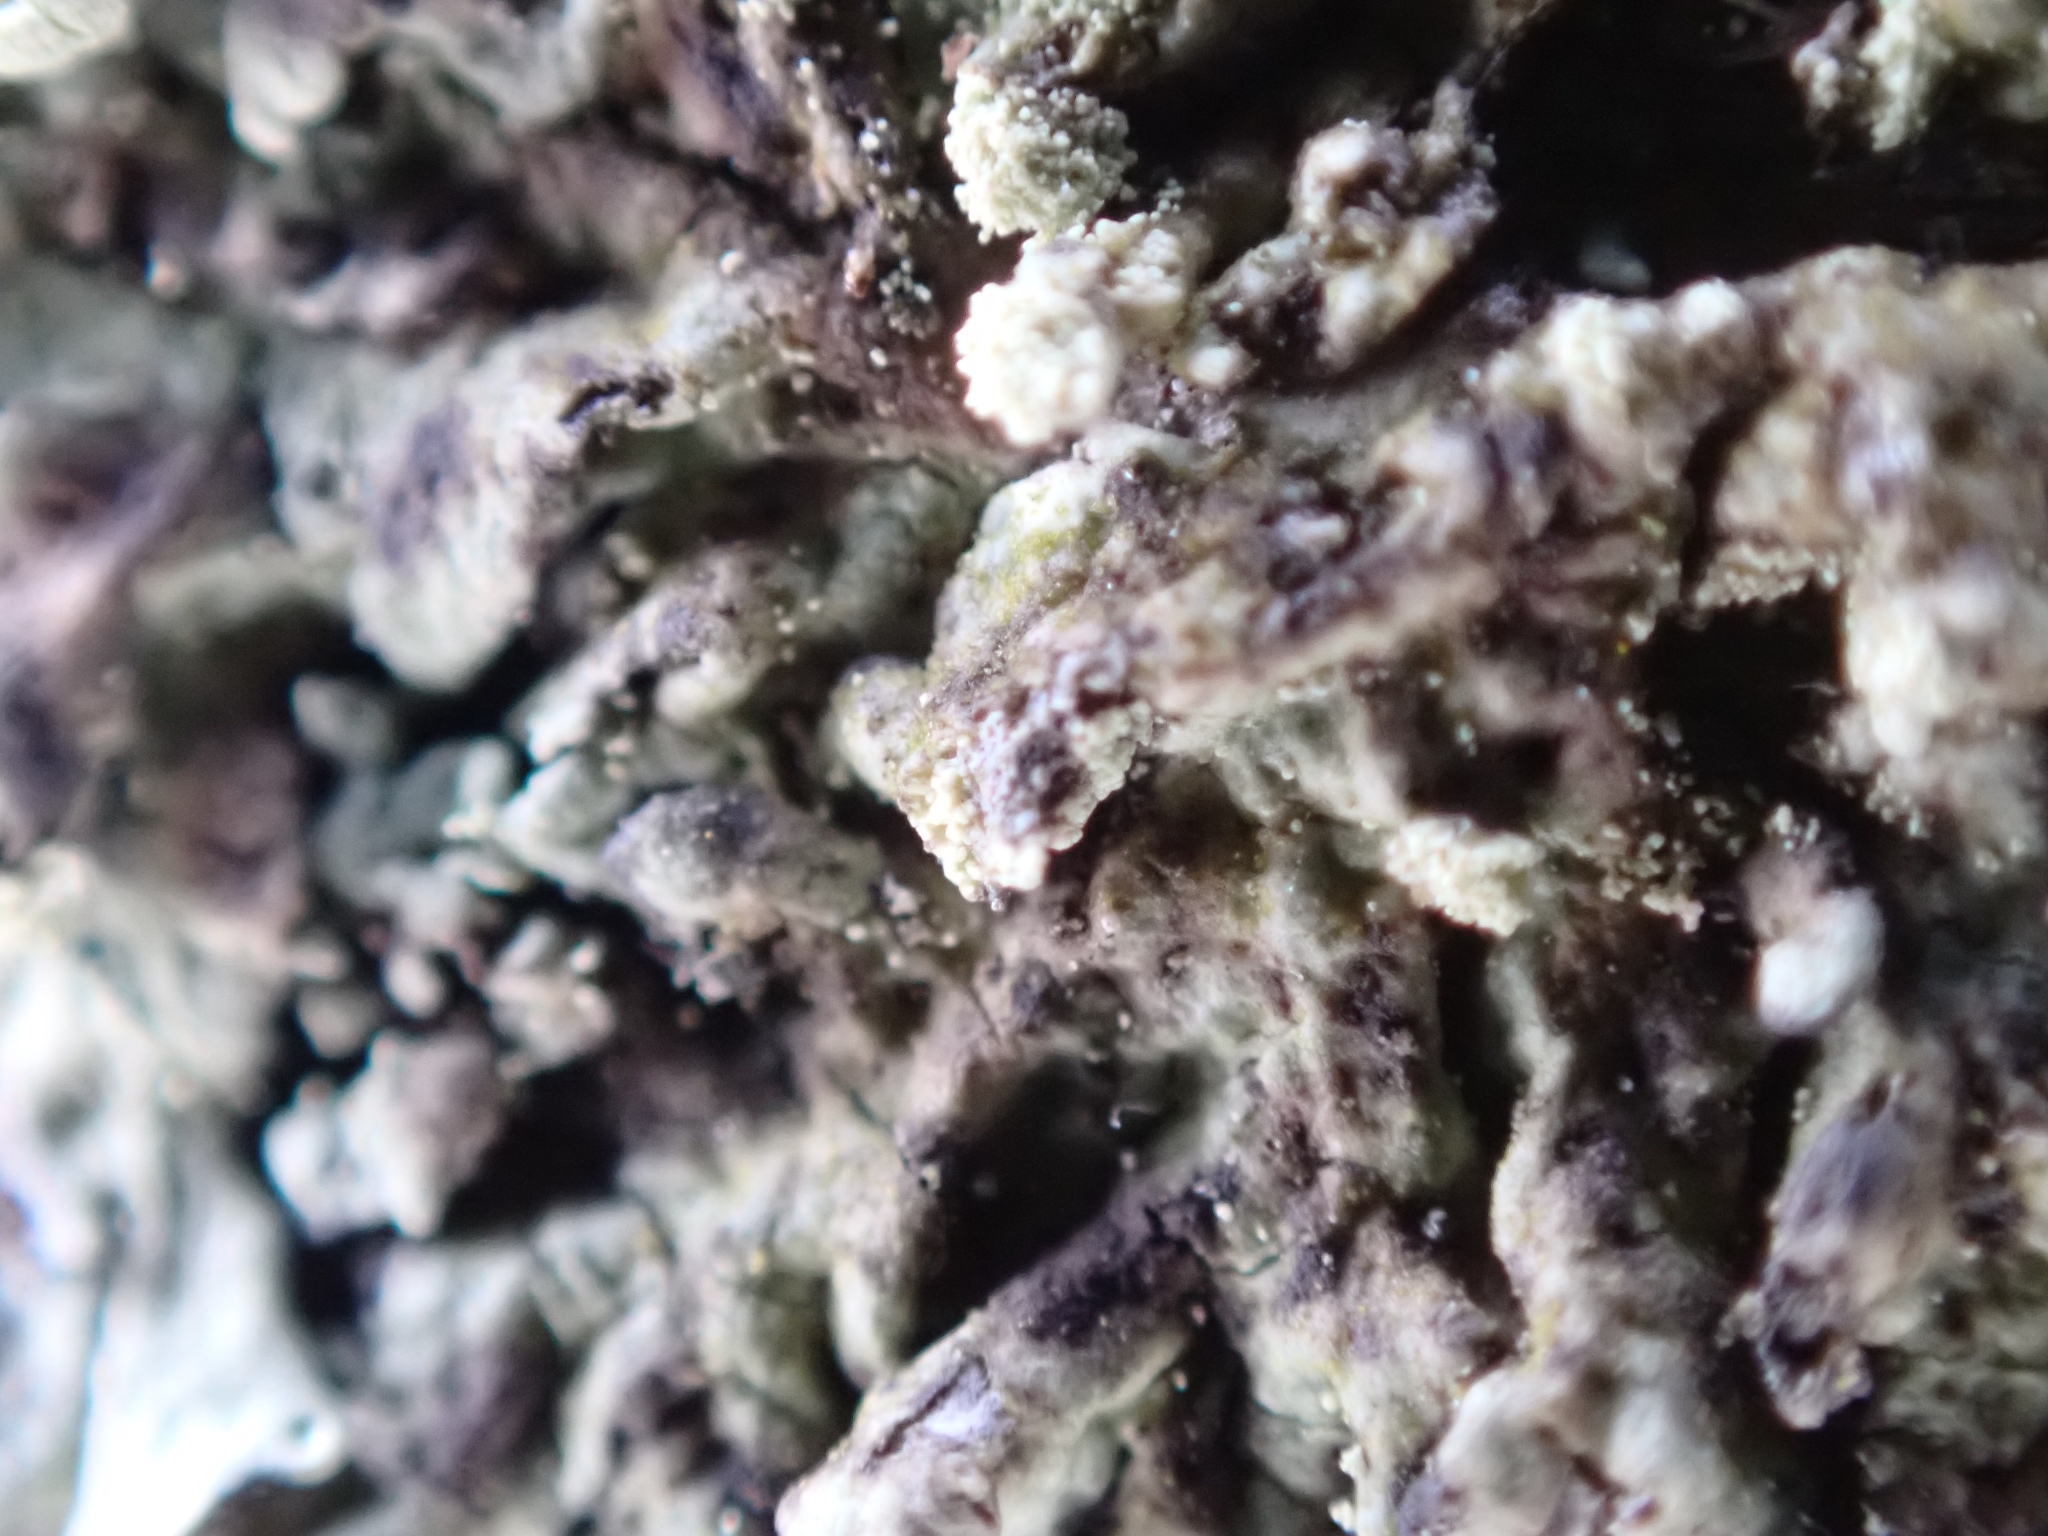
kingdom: Fungi
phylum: Ascomycota
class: Lecanoromycetes
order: Lecanorales
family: Parmeliaceae
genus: Parmeliopsis
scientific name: Parmeliopsis ambigua
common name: Green starburst lichen
